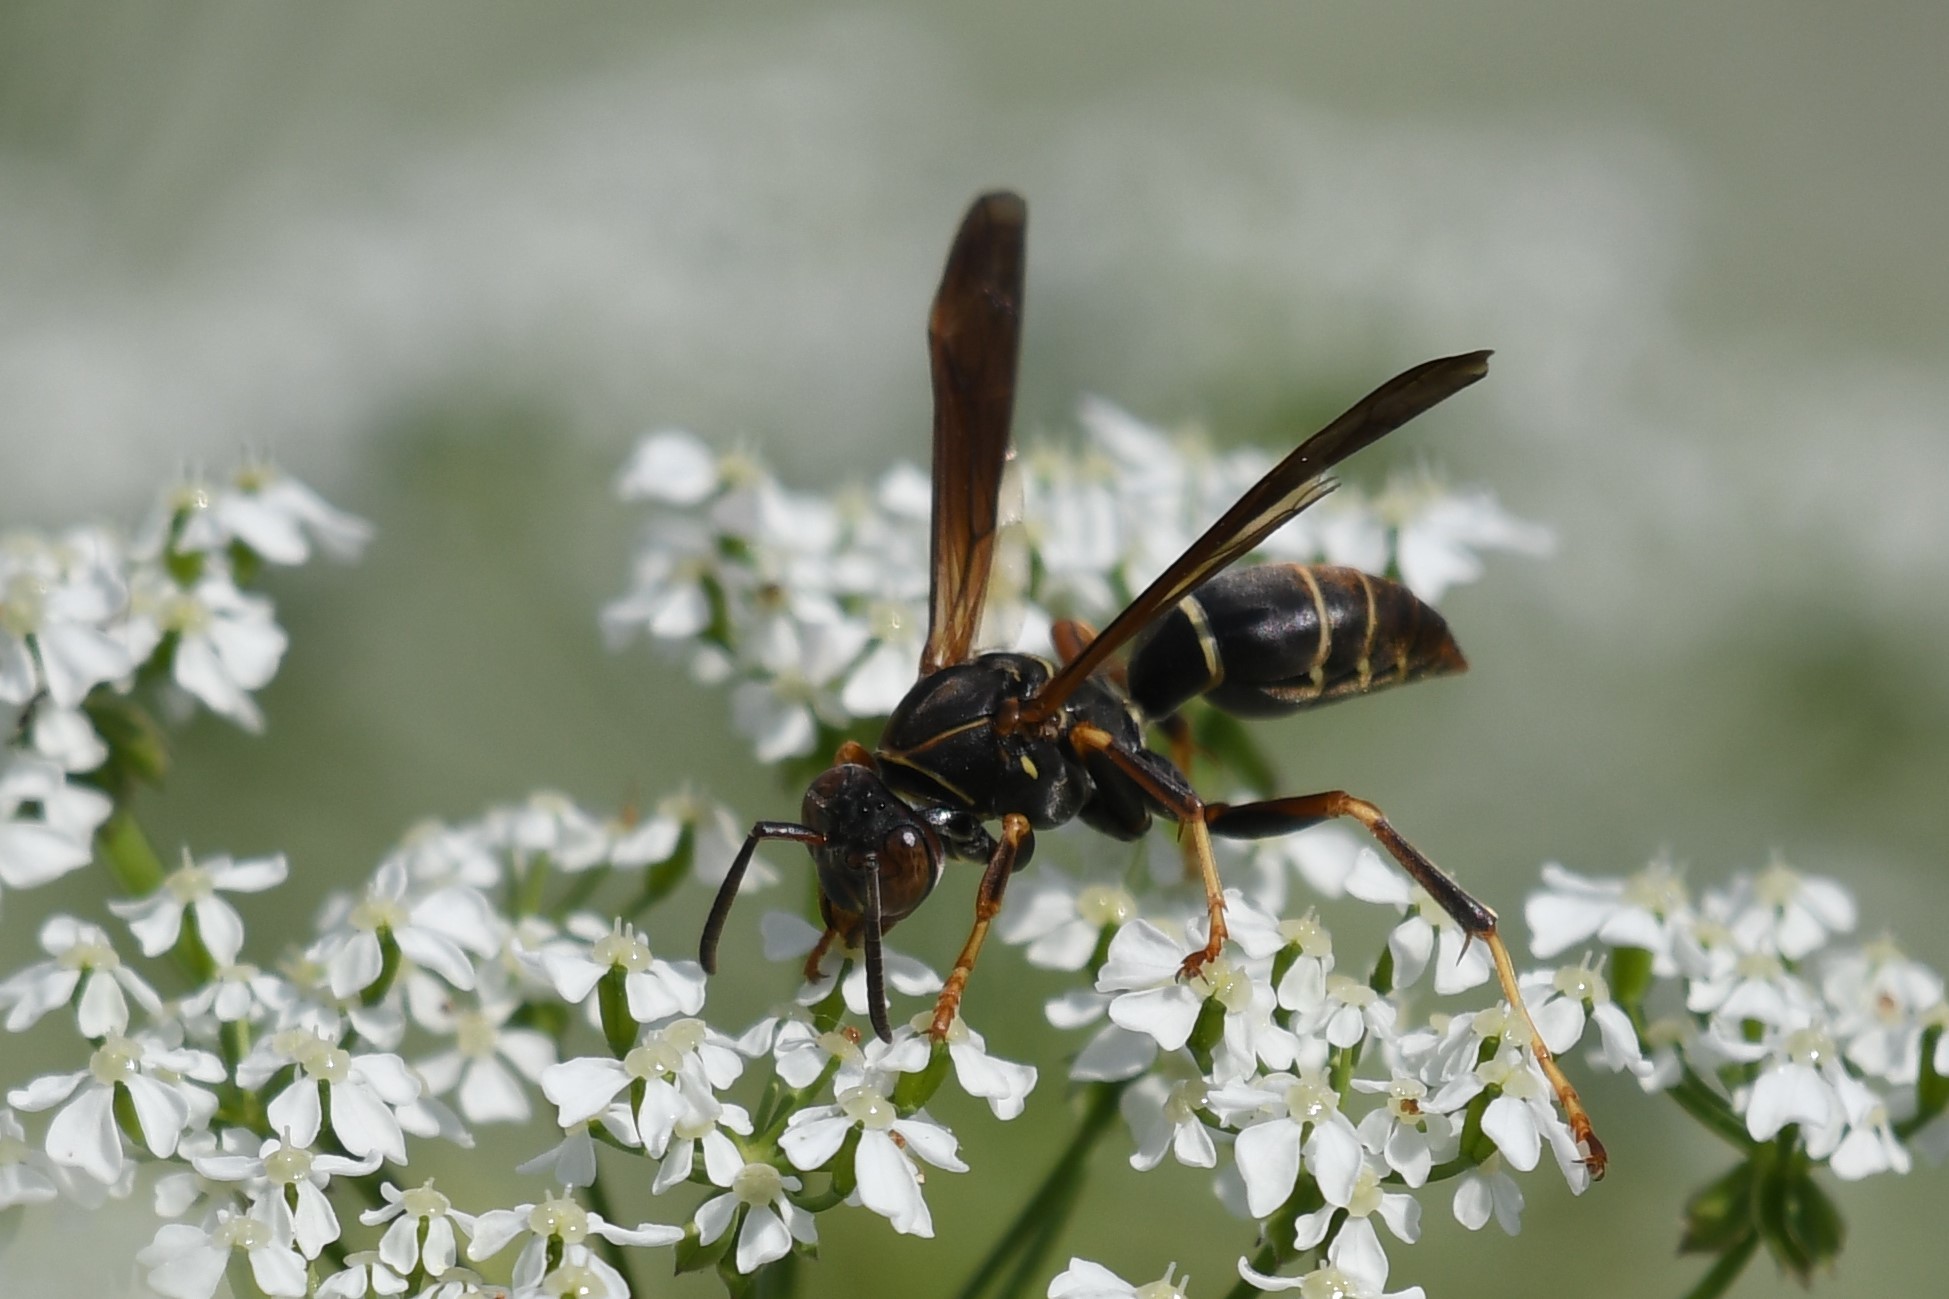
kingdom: Animalia
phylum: Arthropoda
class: Insecta
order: Hymenoptera
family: Eumenidae
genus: Polistes
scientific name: Polistes fuscatus
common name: Dark paper wasp
